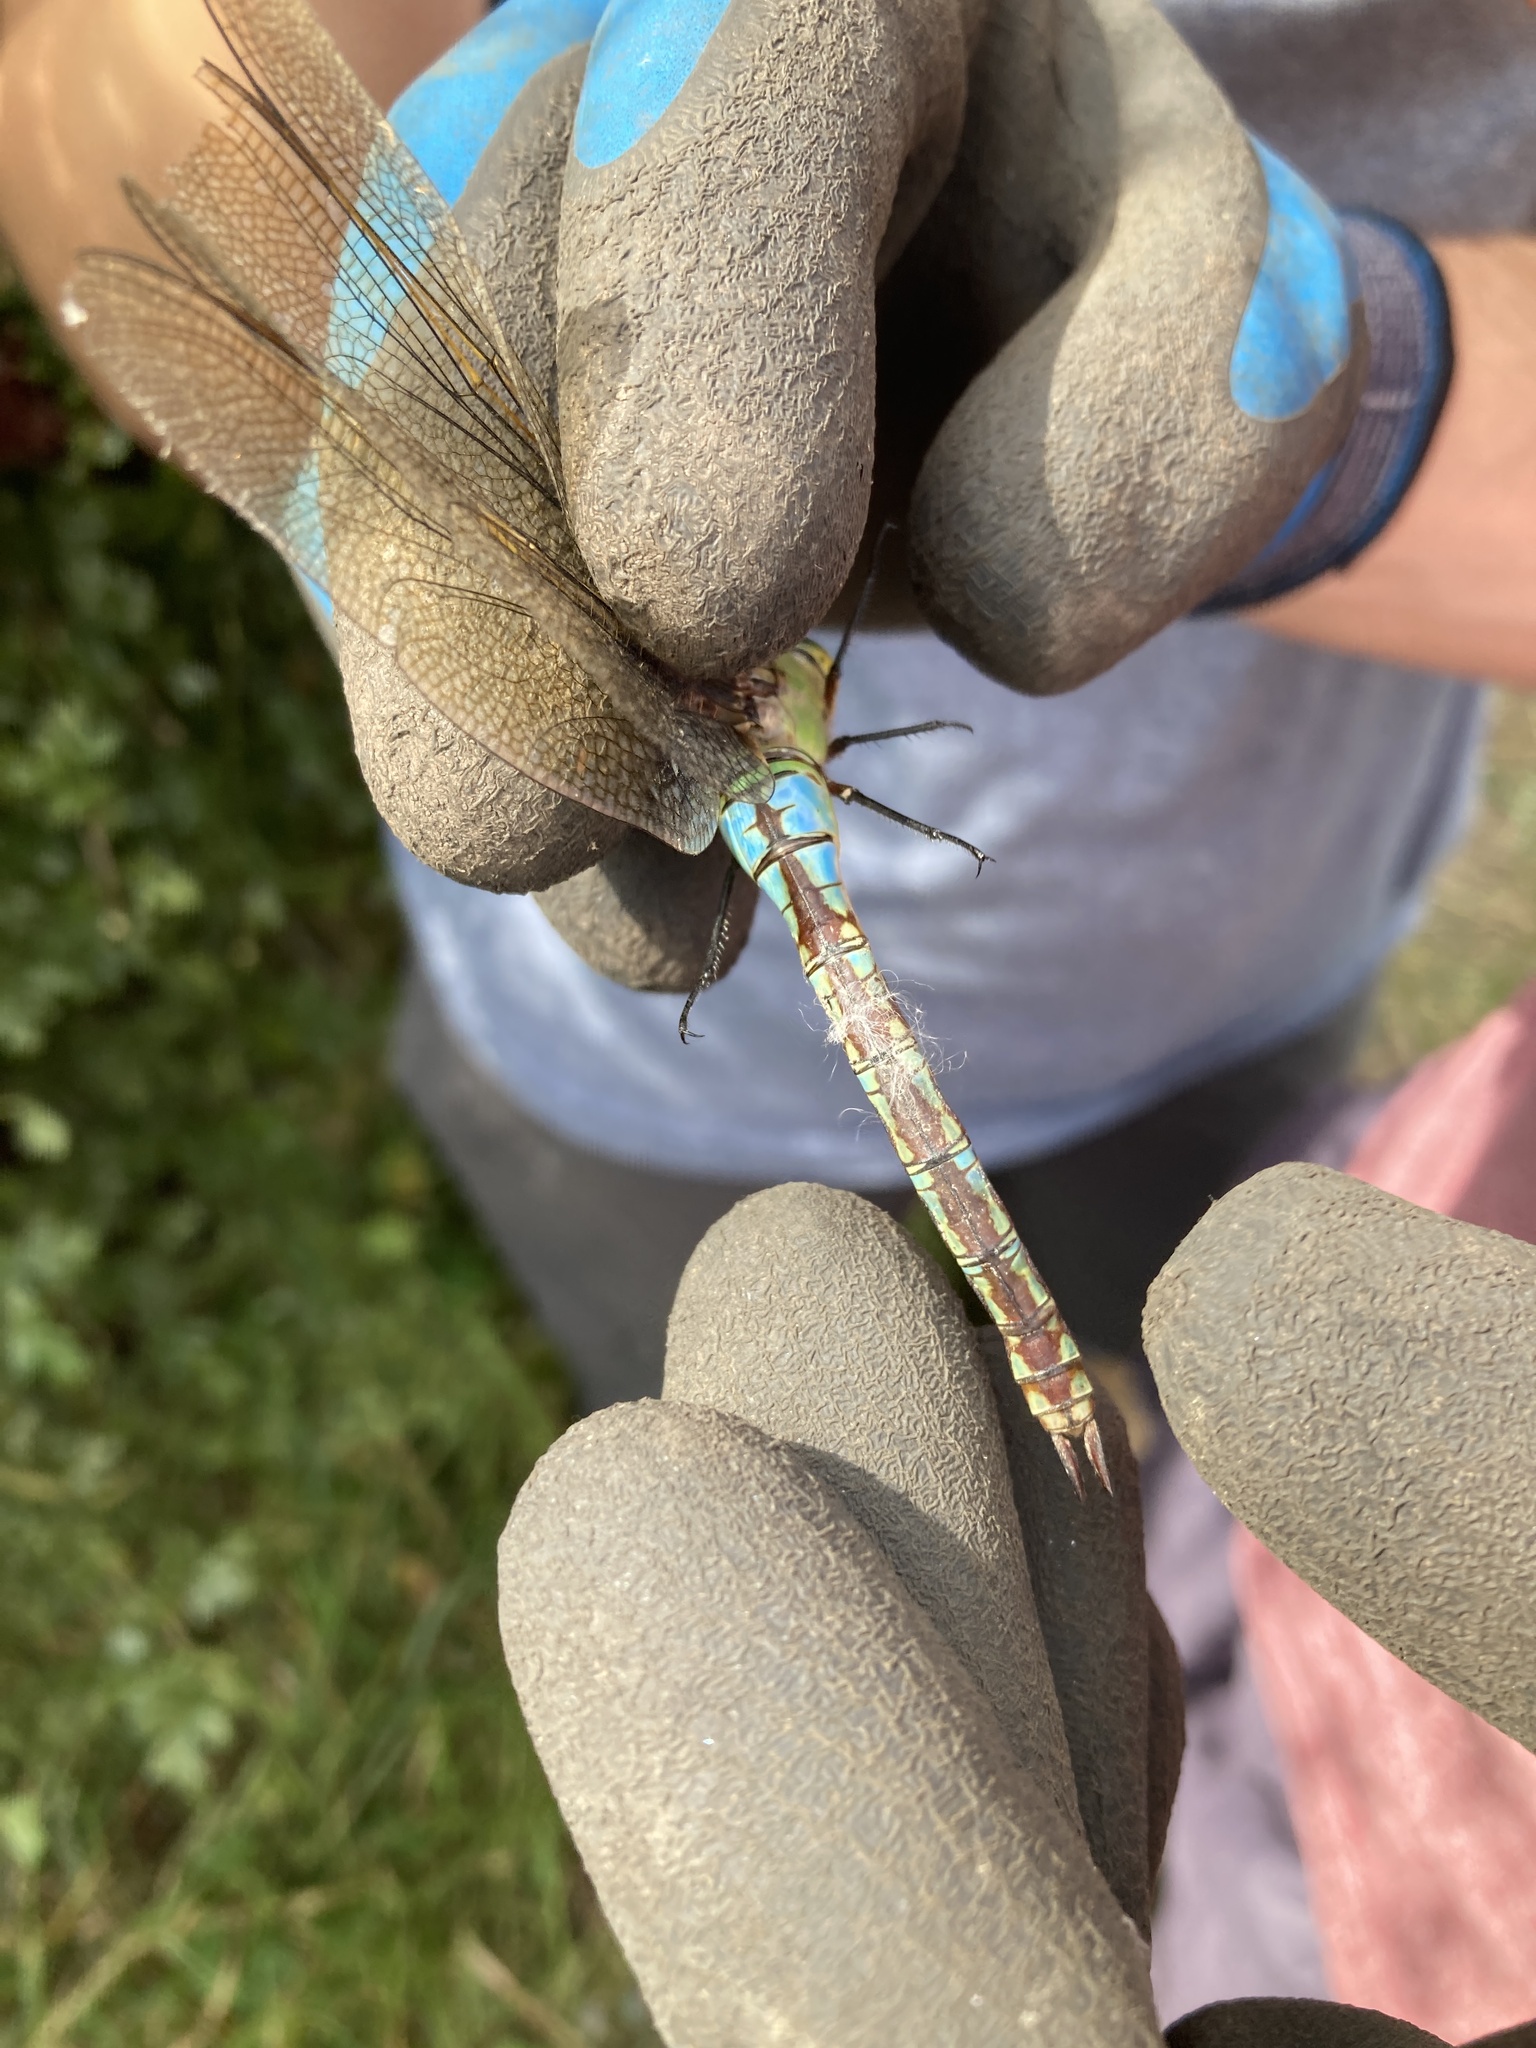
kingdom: Animalia
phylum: Arthropoda
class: Insecta
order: Odonata
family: Aeshnidae
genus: Anax
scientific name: Anax imperator
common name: Emperor dragonfly
